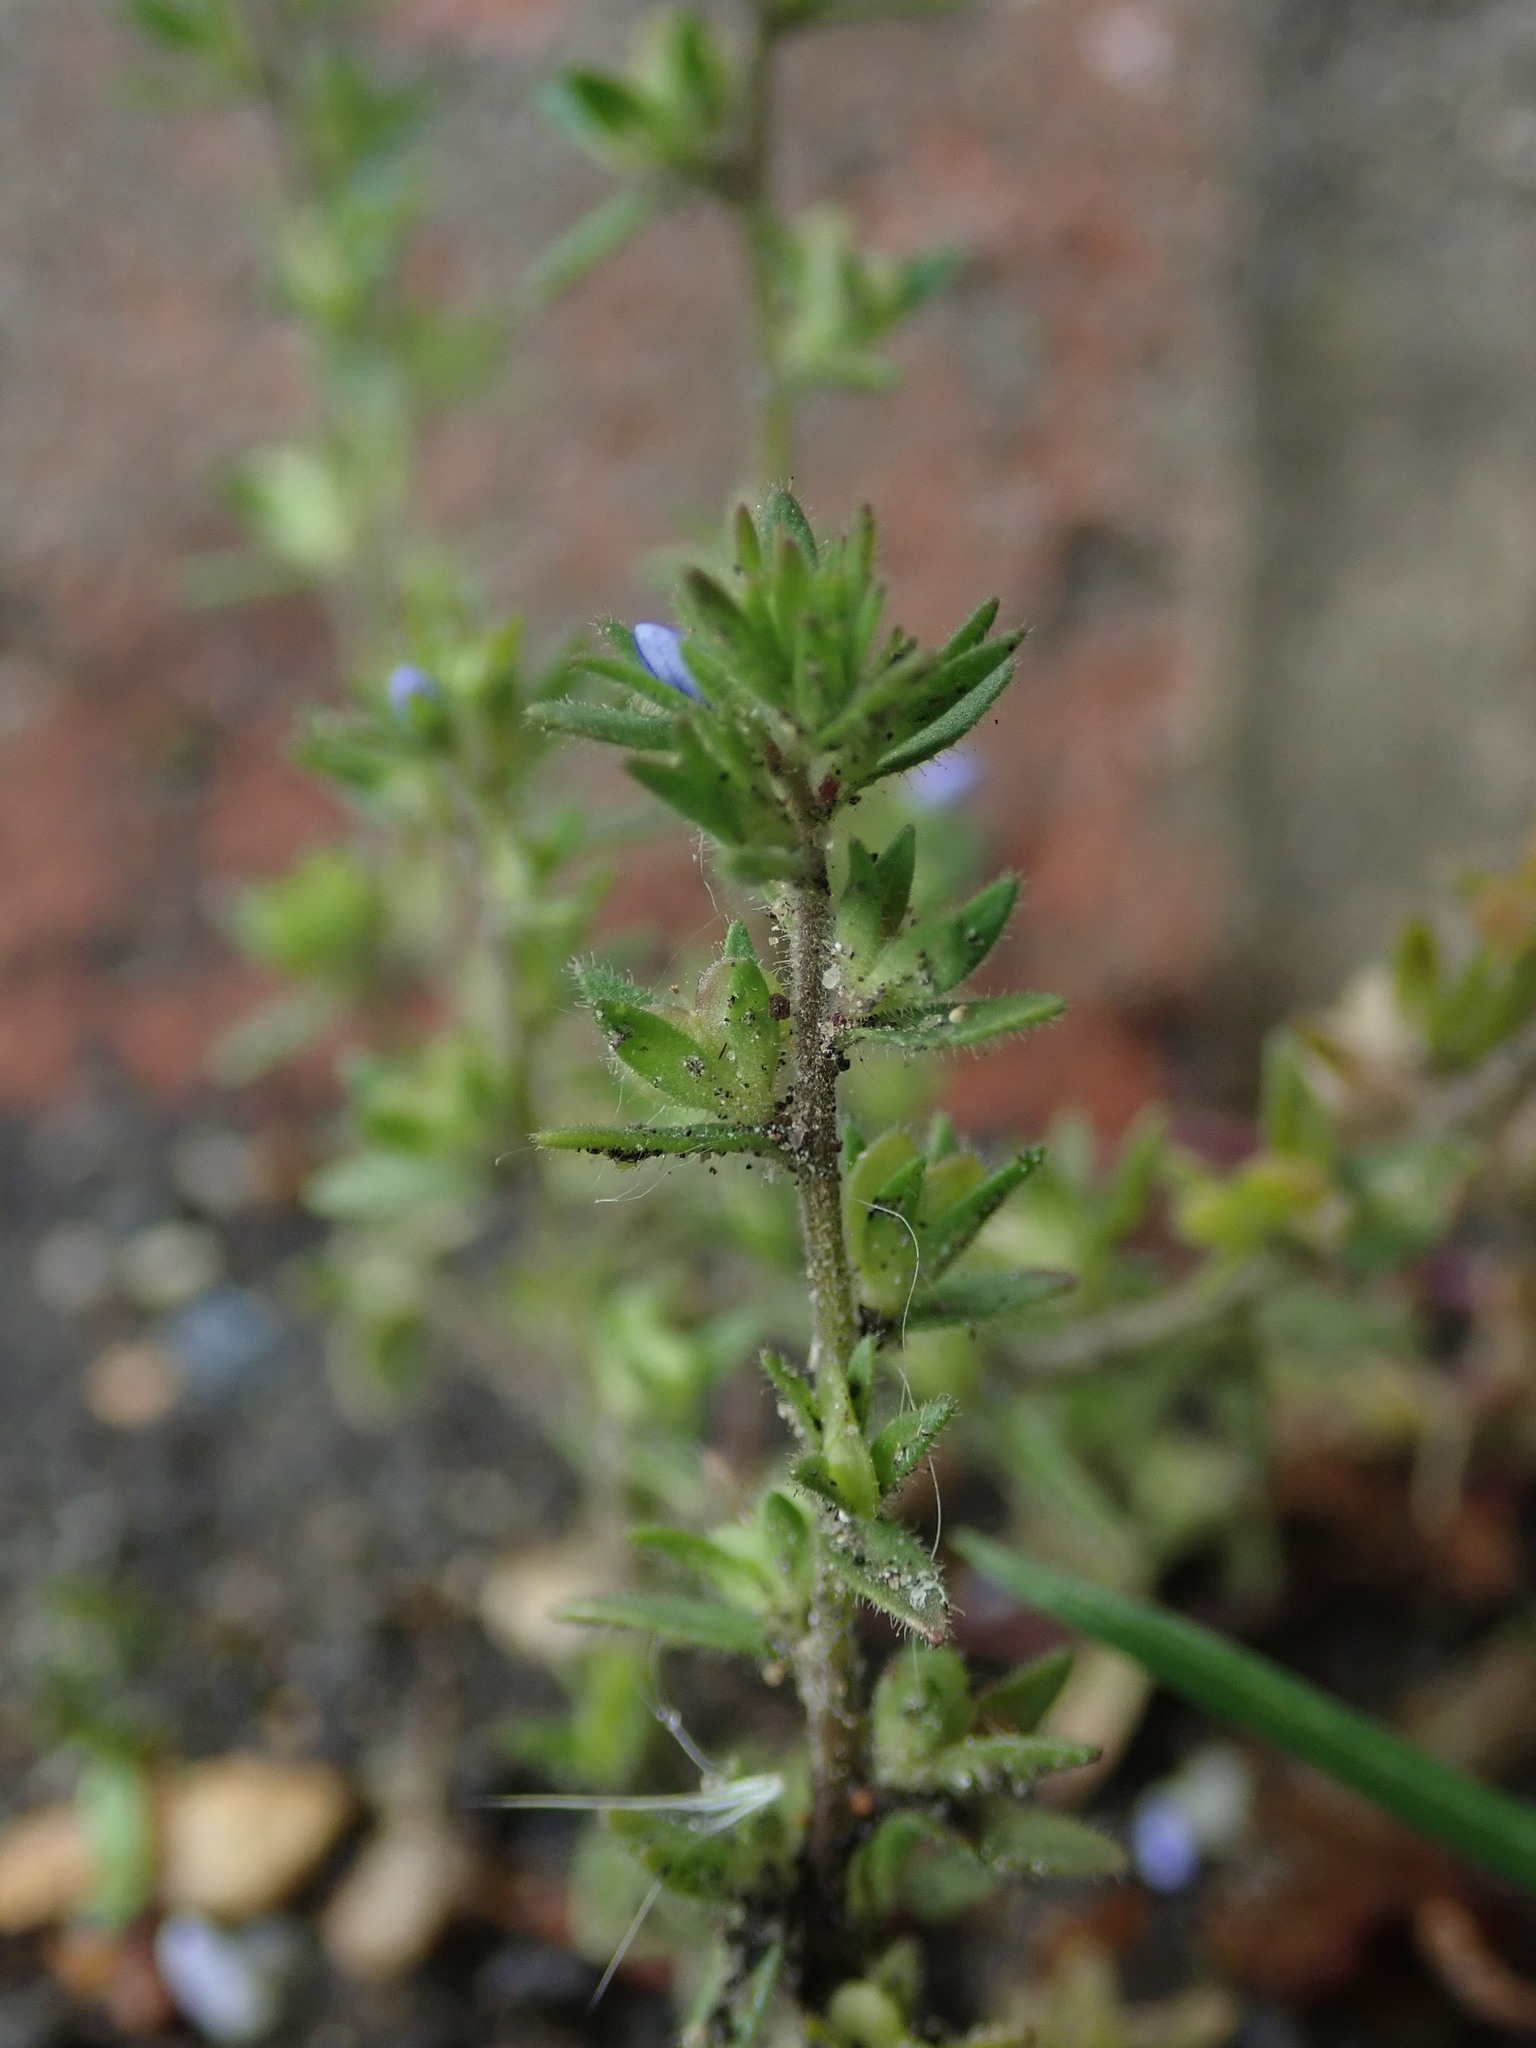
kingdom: Plantae
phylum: Tracheophyta
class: Magnoliopsida
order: Lamiales
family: Plantaginaceae
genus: Veronica
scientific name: Veronica arvensis
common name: Corn speedwell
